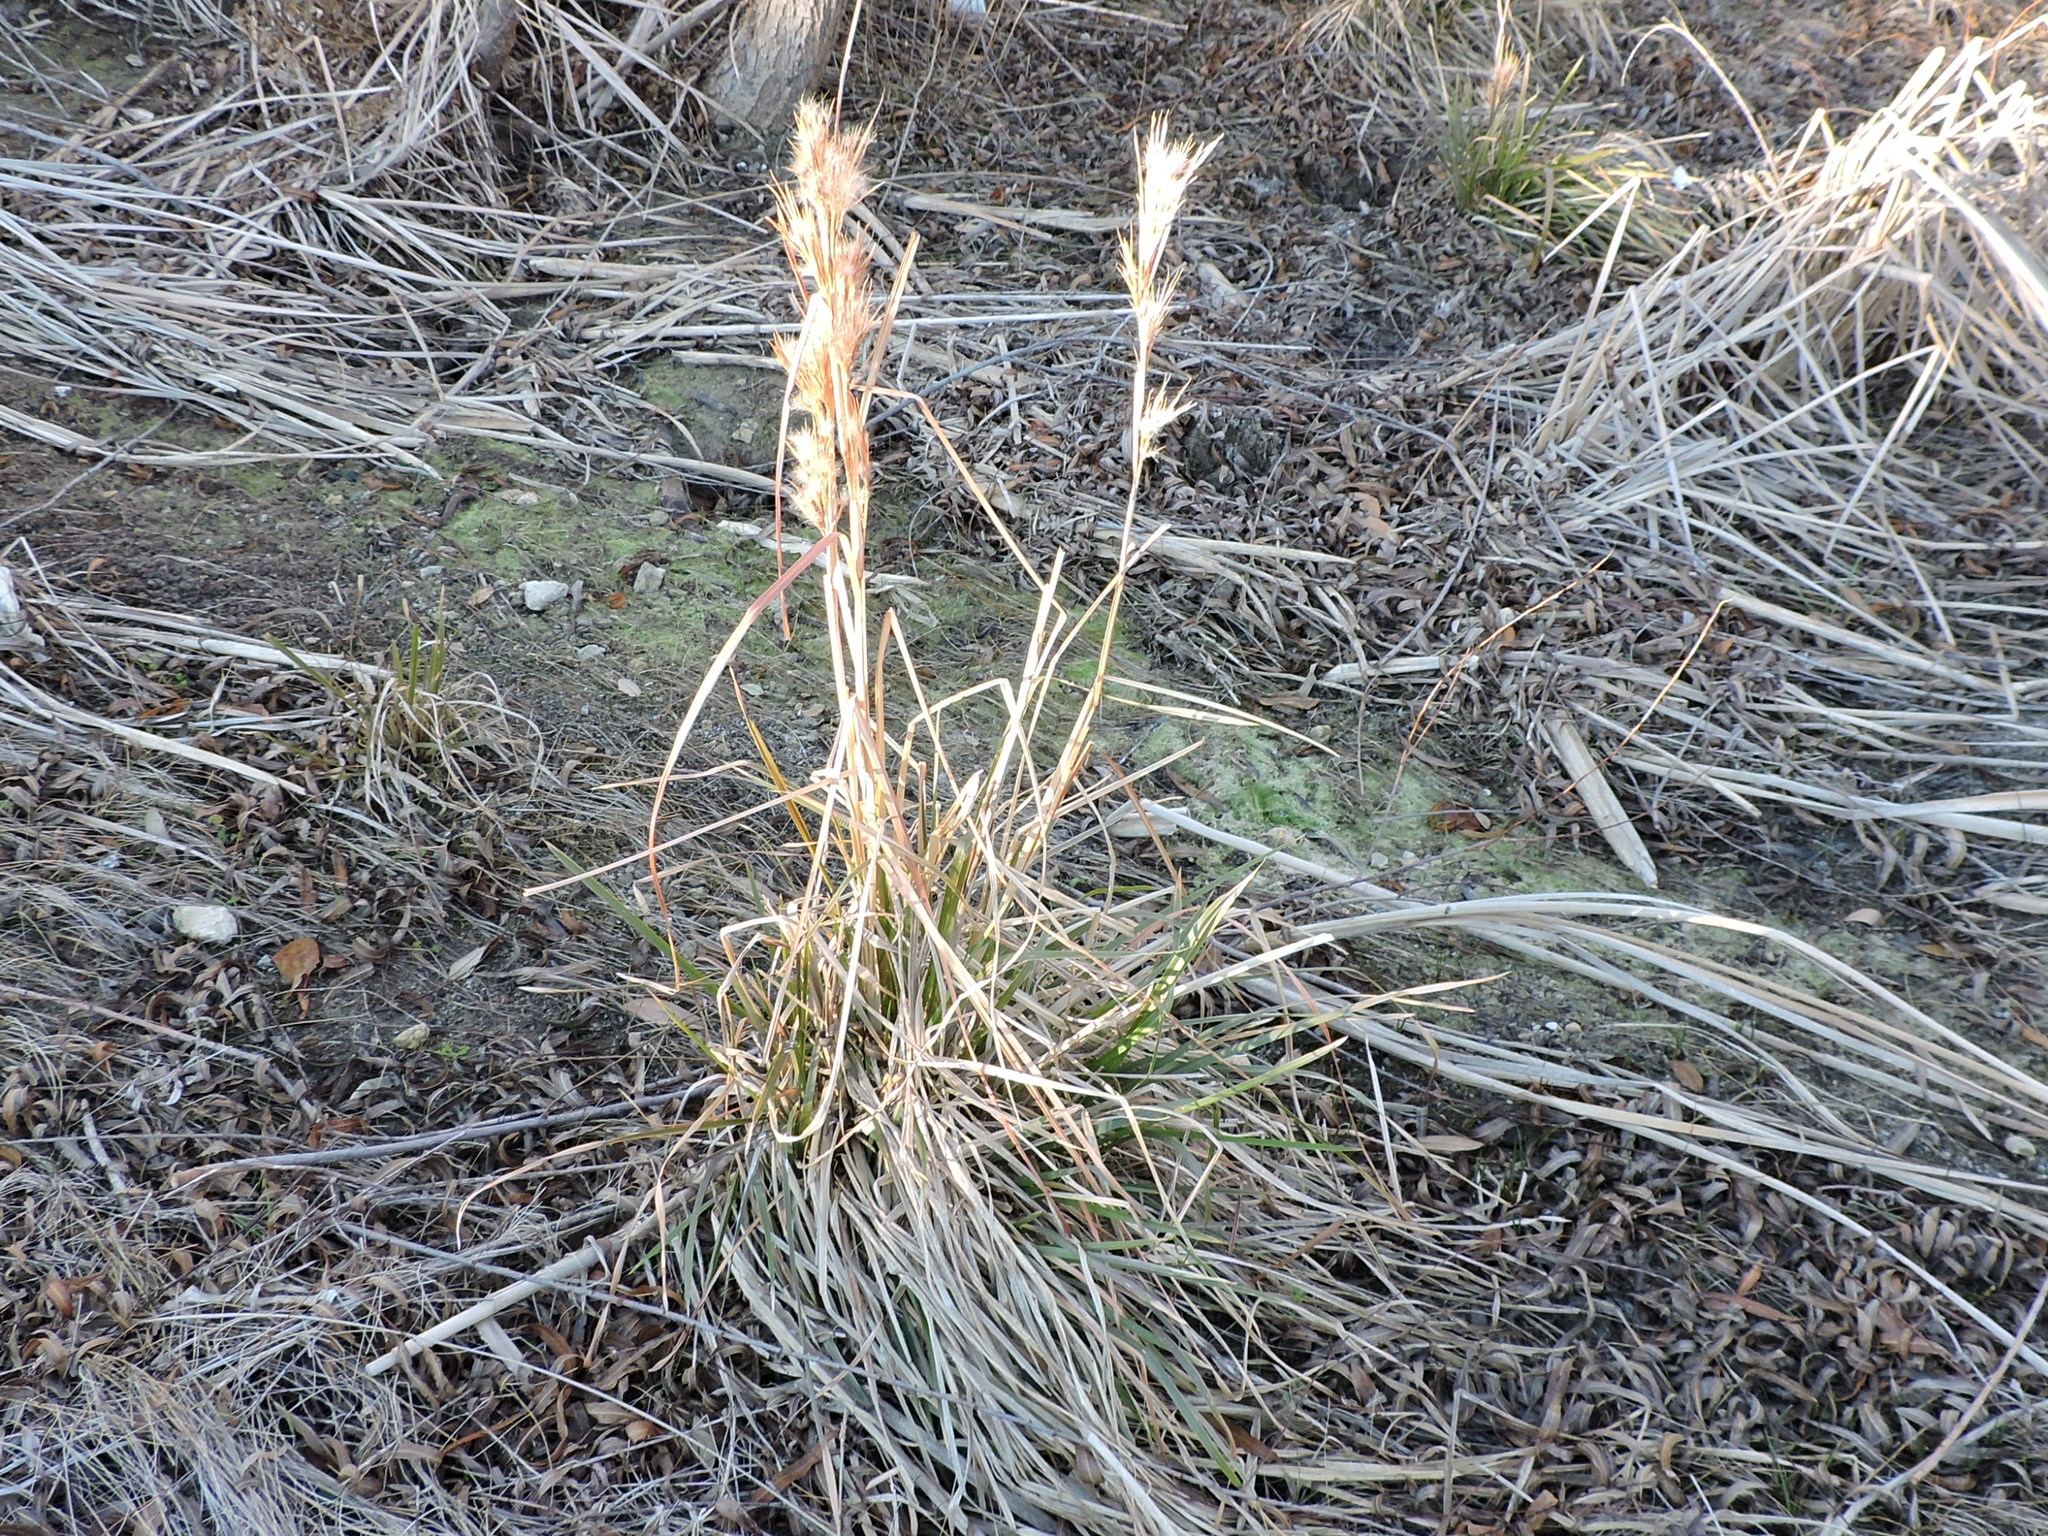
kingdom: Plantae
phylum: Tracheophyta
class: Liliopsida
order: Poales
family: Poaceae
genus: Andropogon
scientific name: Andropogon tenuispatheus
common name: Bushy bluestem
